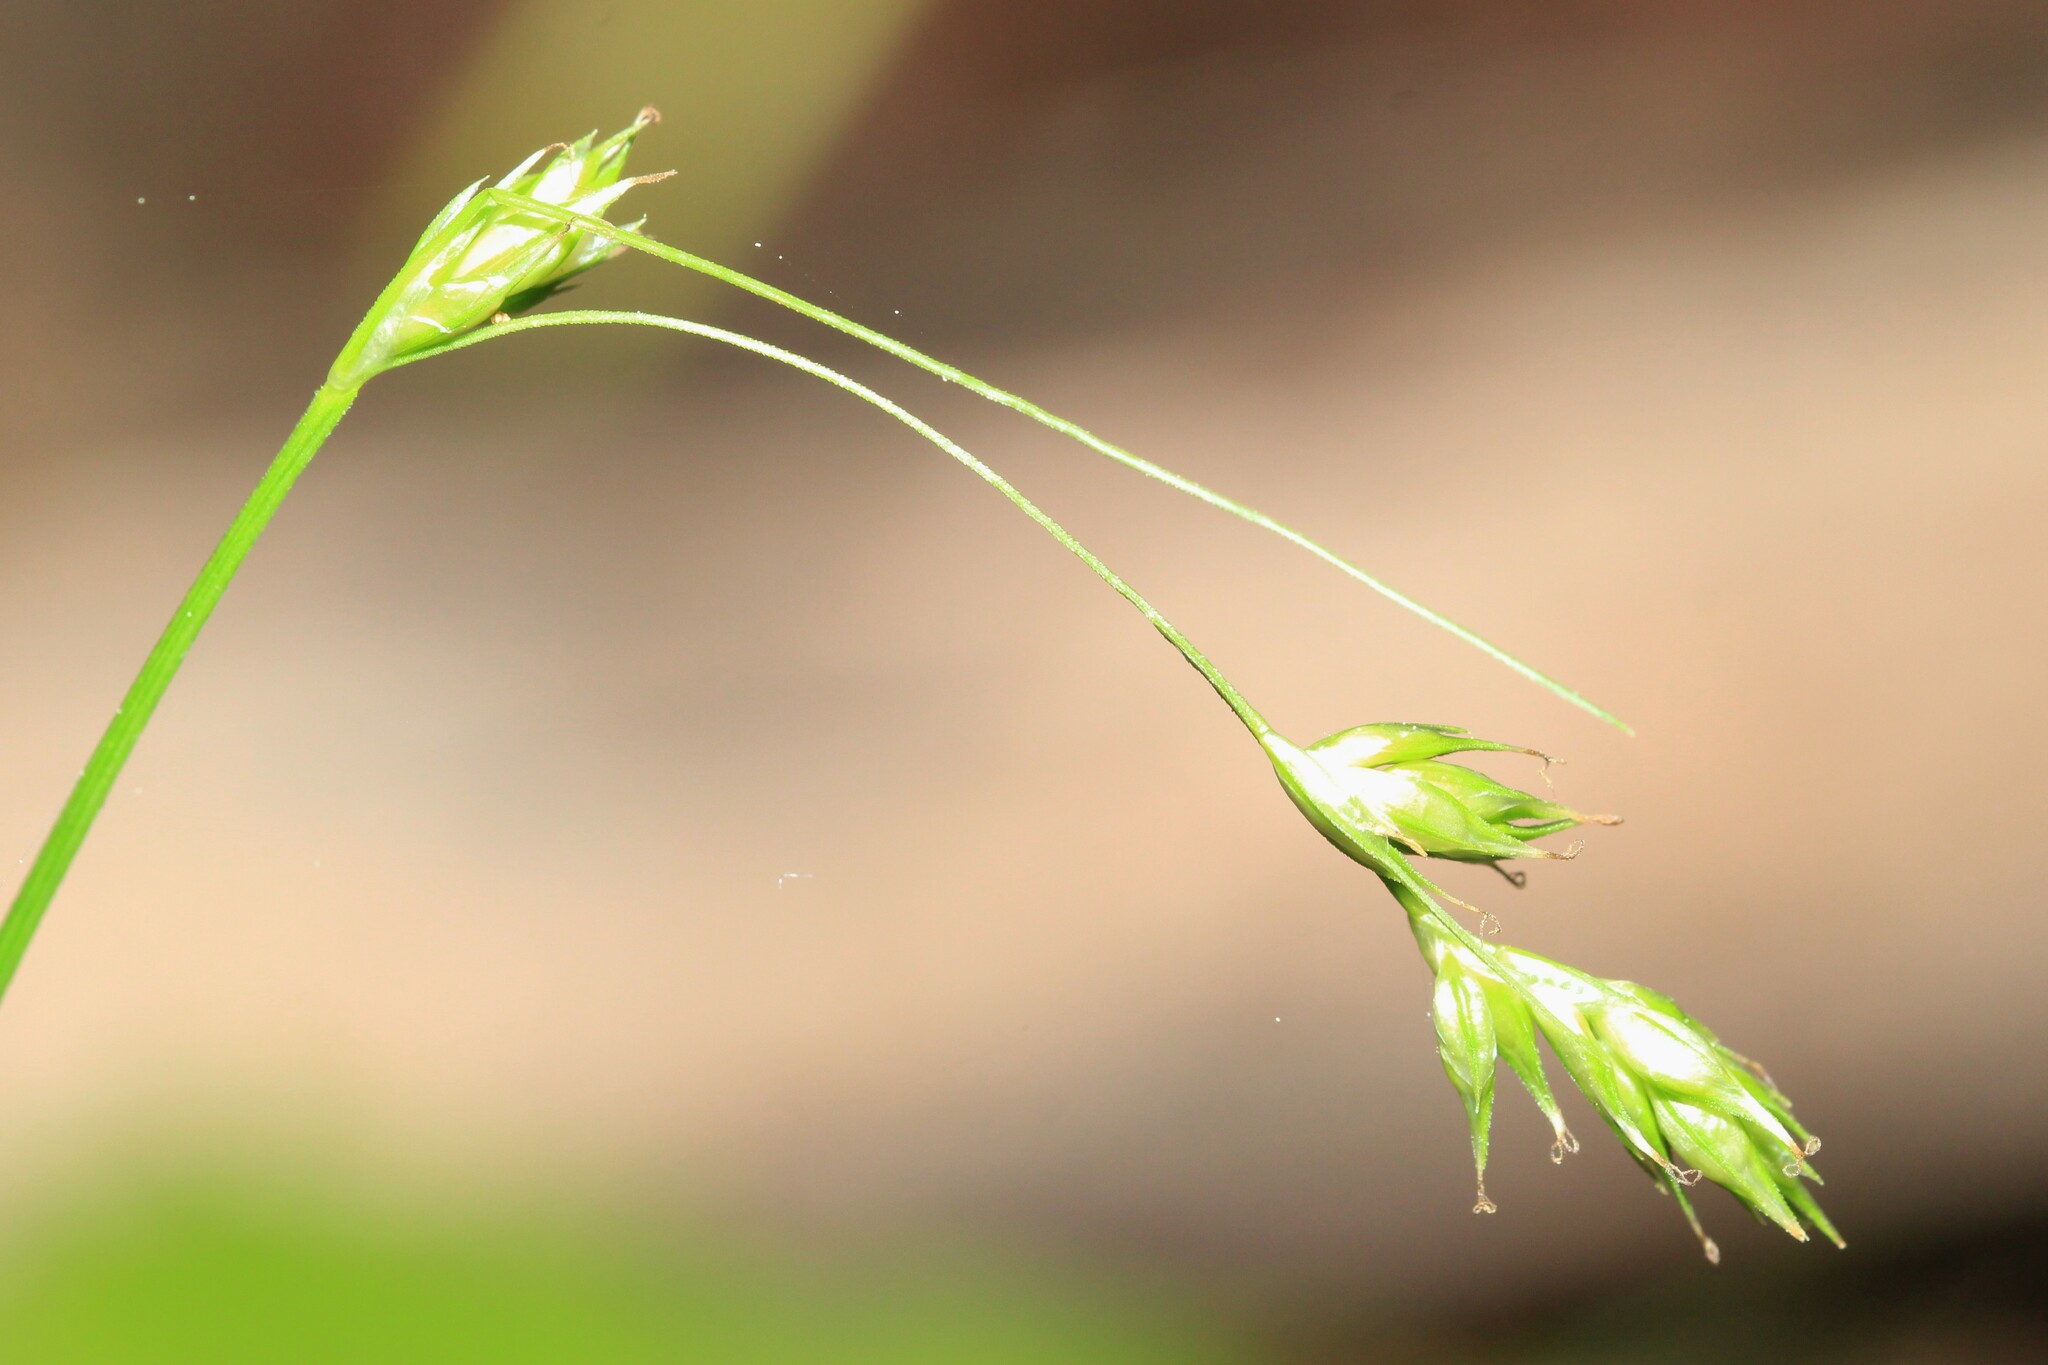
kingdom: Plantae
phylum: Tracheophyta
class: Liliopsida
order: Poales
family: Cyperaceae
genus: Carex
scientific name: Carex deweyana
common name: Dewey's sedge
